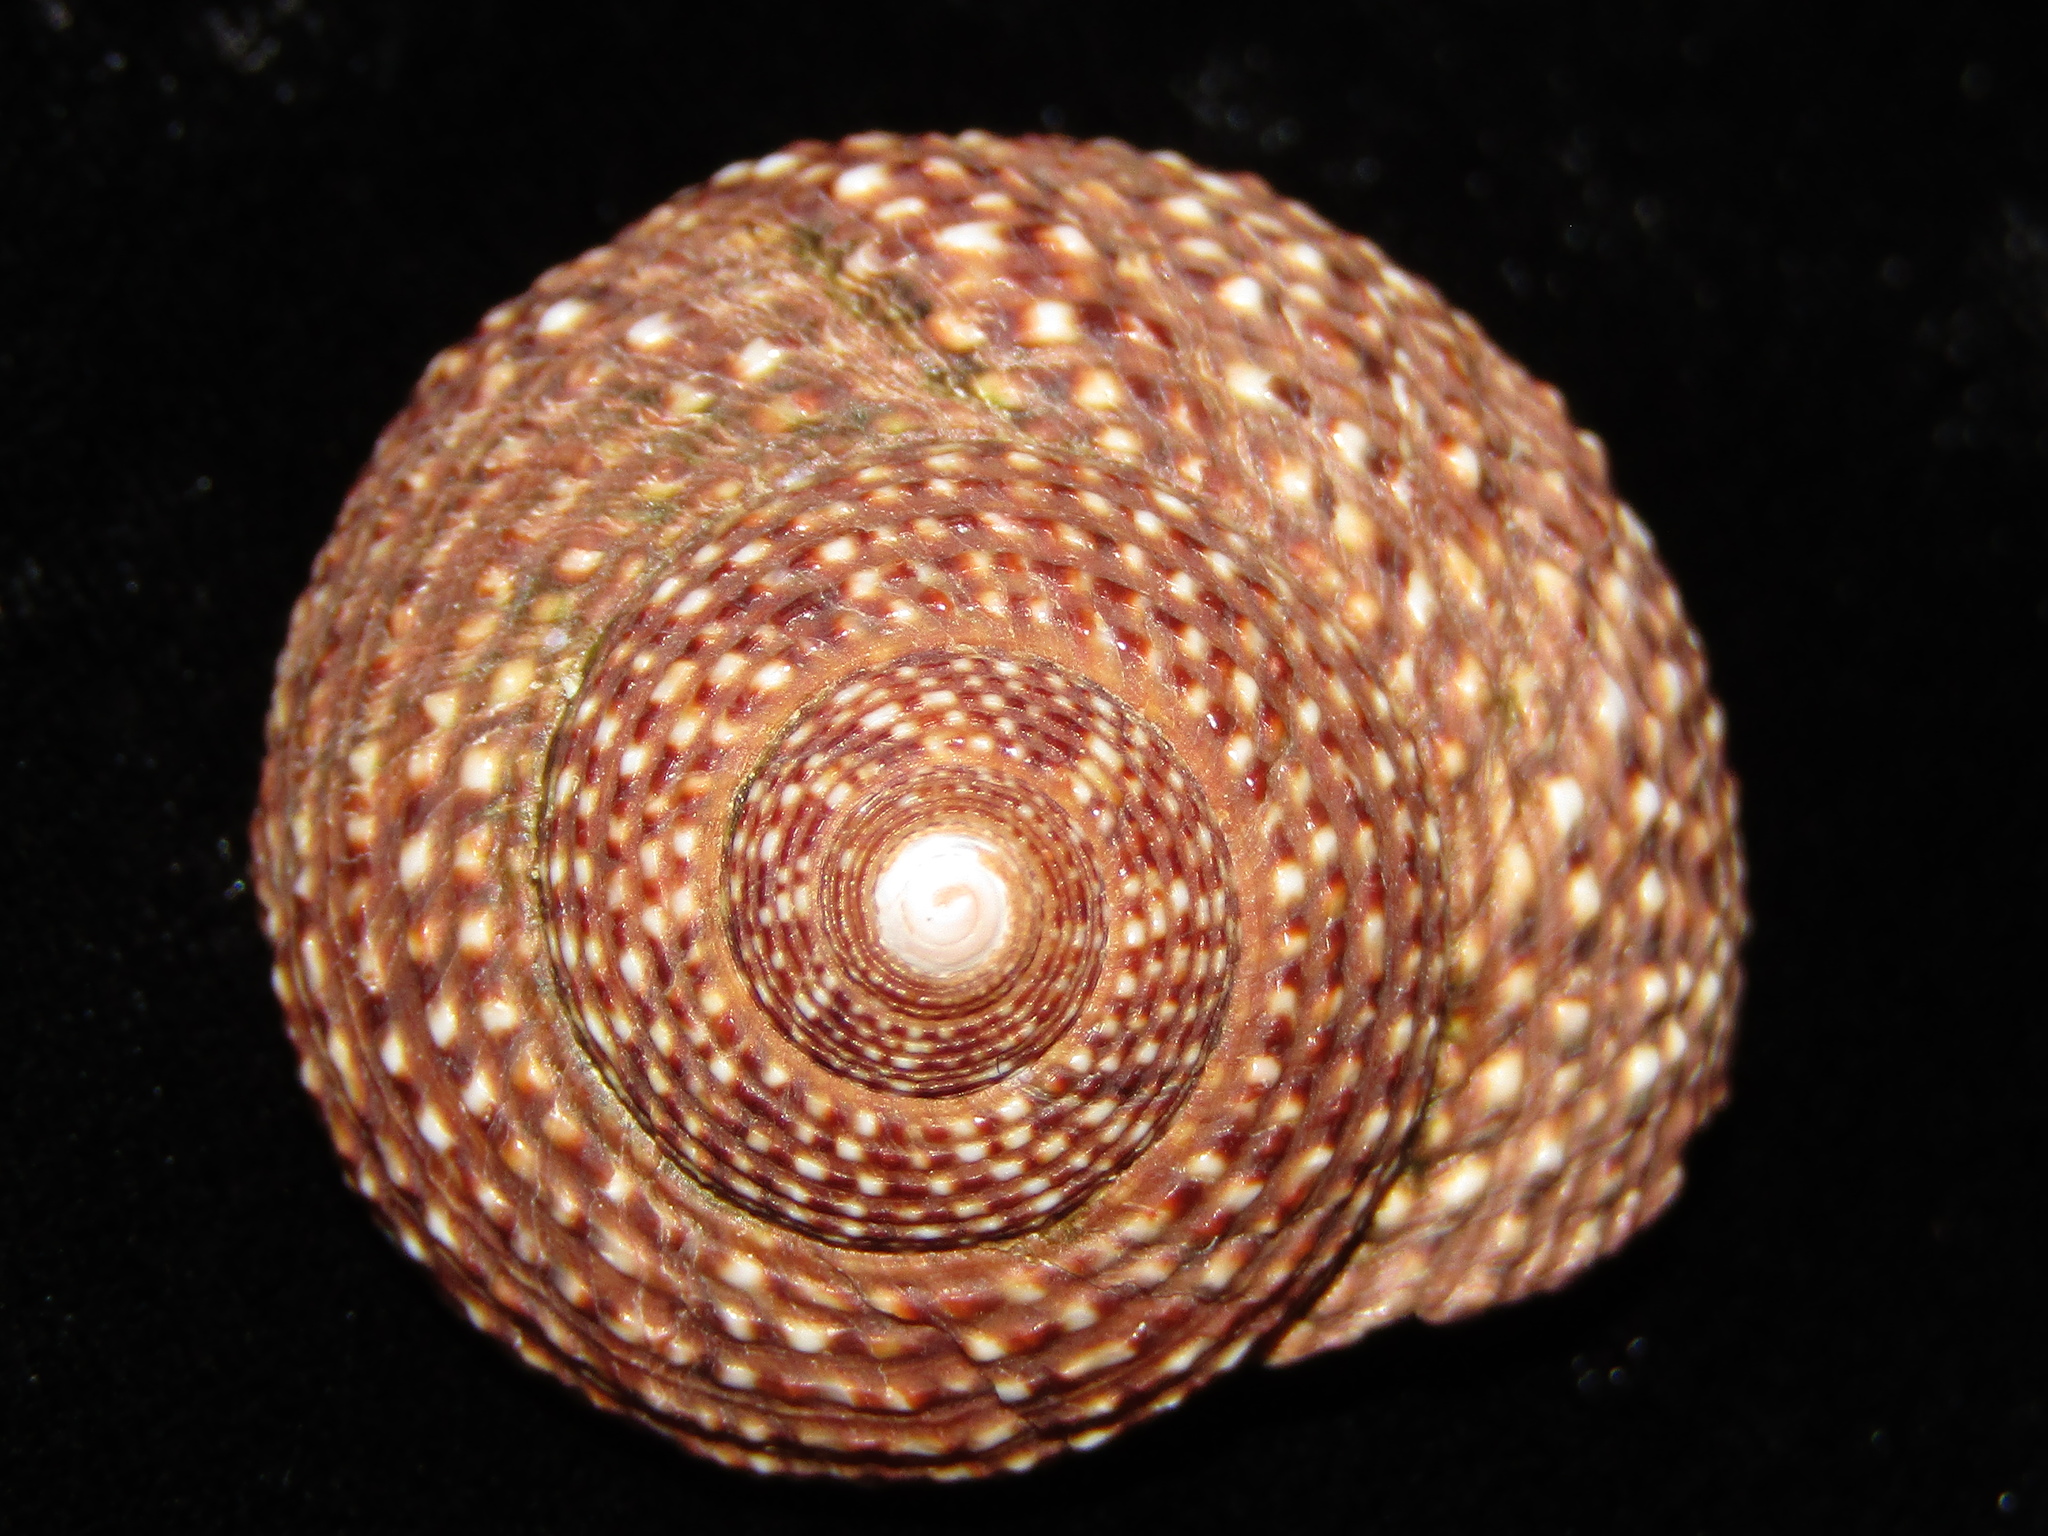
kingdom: Animalia
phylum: Mollusca
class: Gastropoda
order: Trochida
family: Calliostomatidae
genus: Maurea
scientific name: Maurea punctulata
